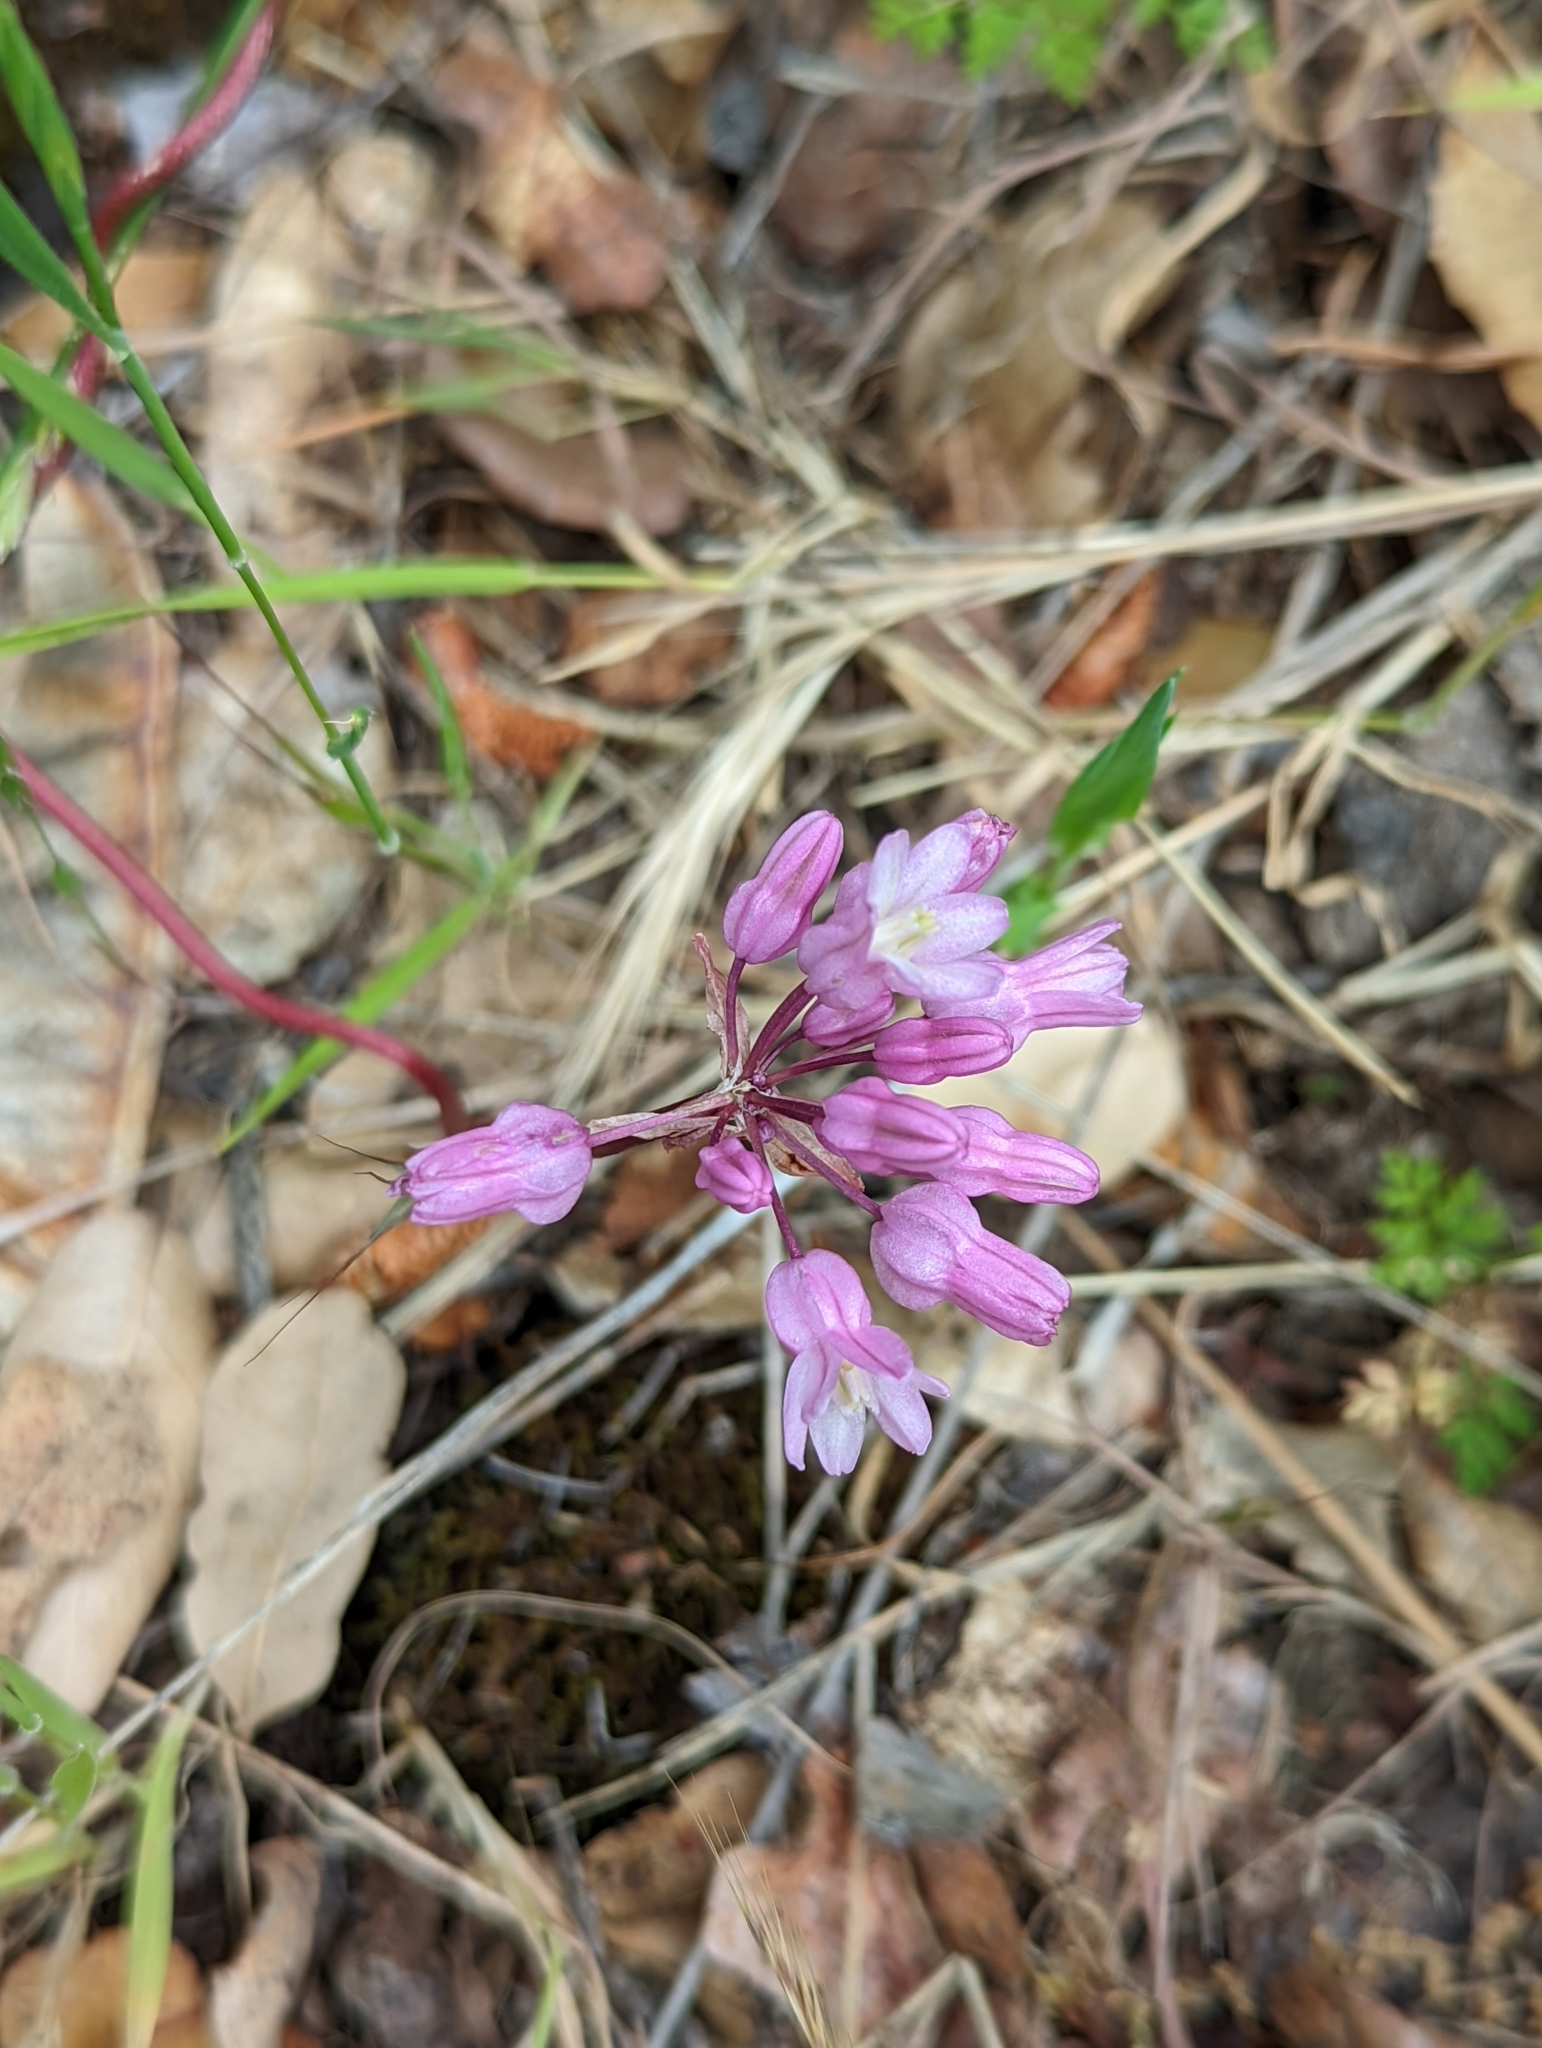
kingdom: Plantae
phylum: Tracheophyta
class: Liliopsida
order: Asparagales
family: Asparagaceae
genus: Dichelostemma
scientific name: Dichelostemma volubile
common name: Trining brodiaea
